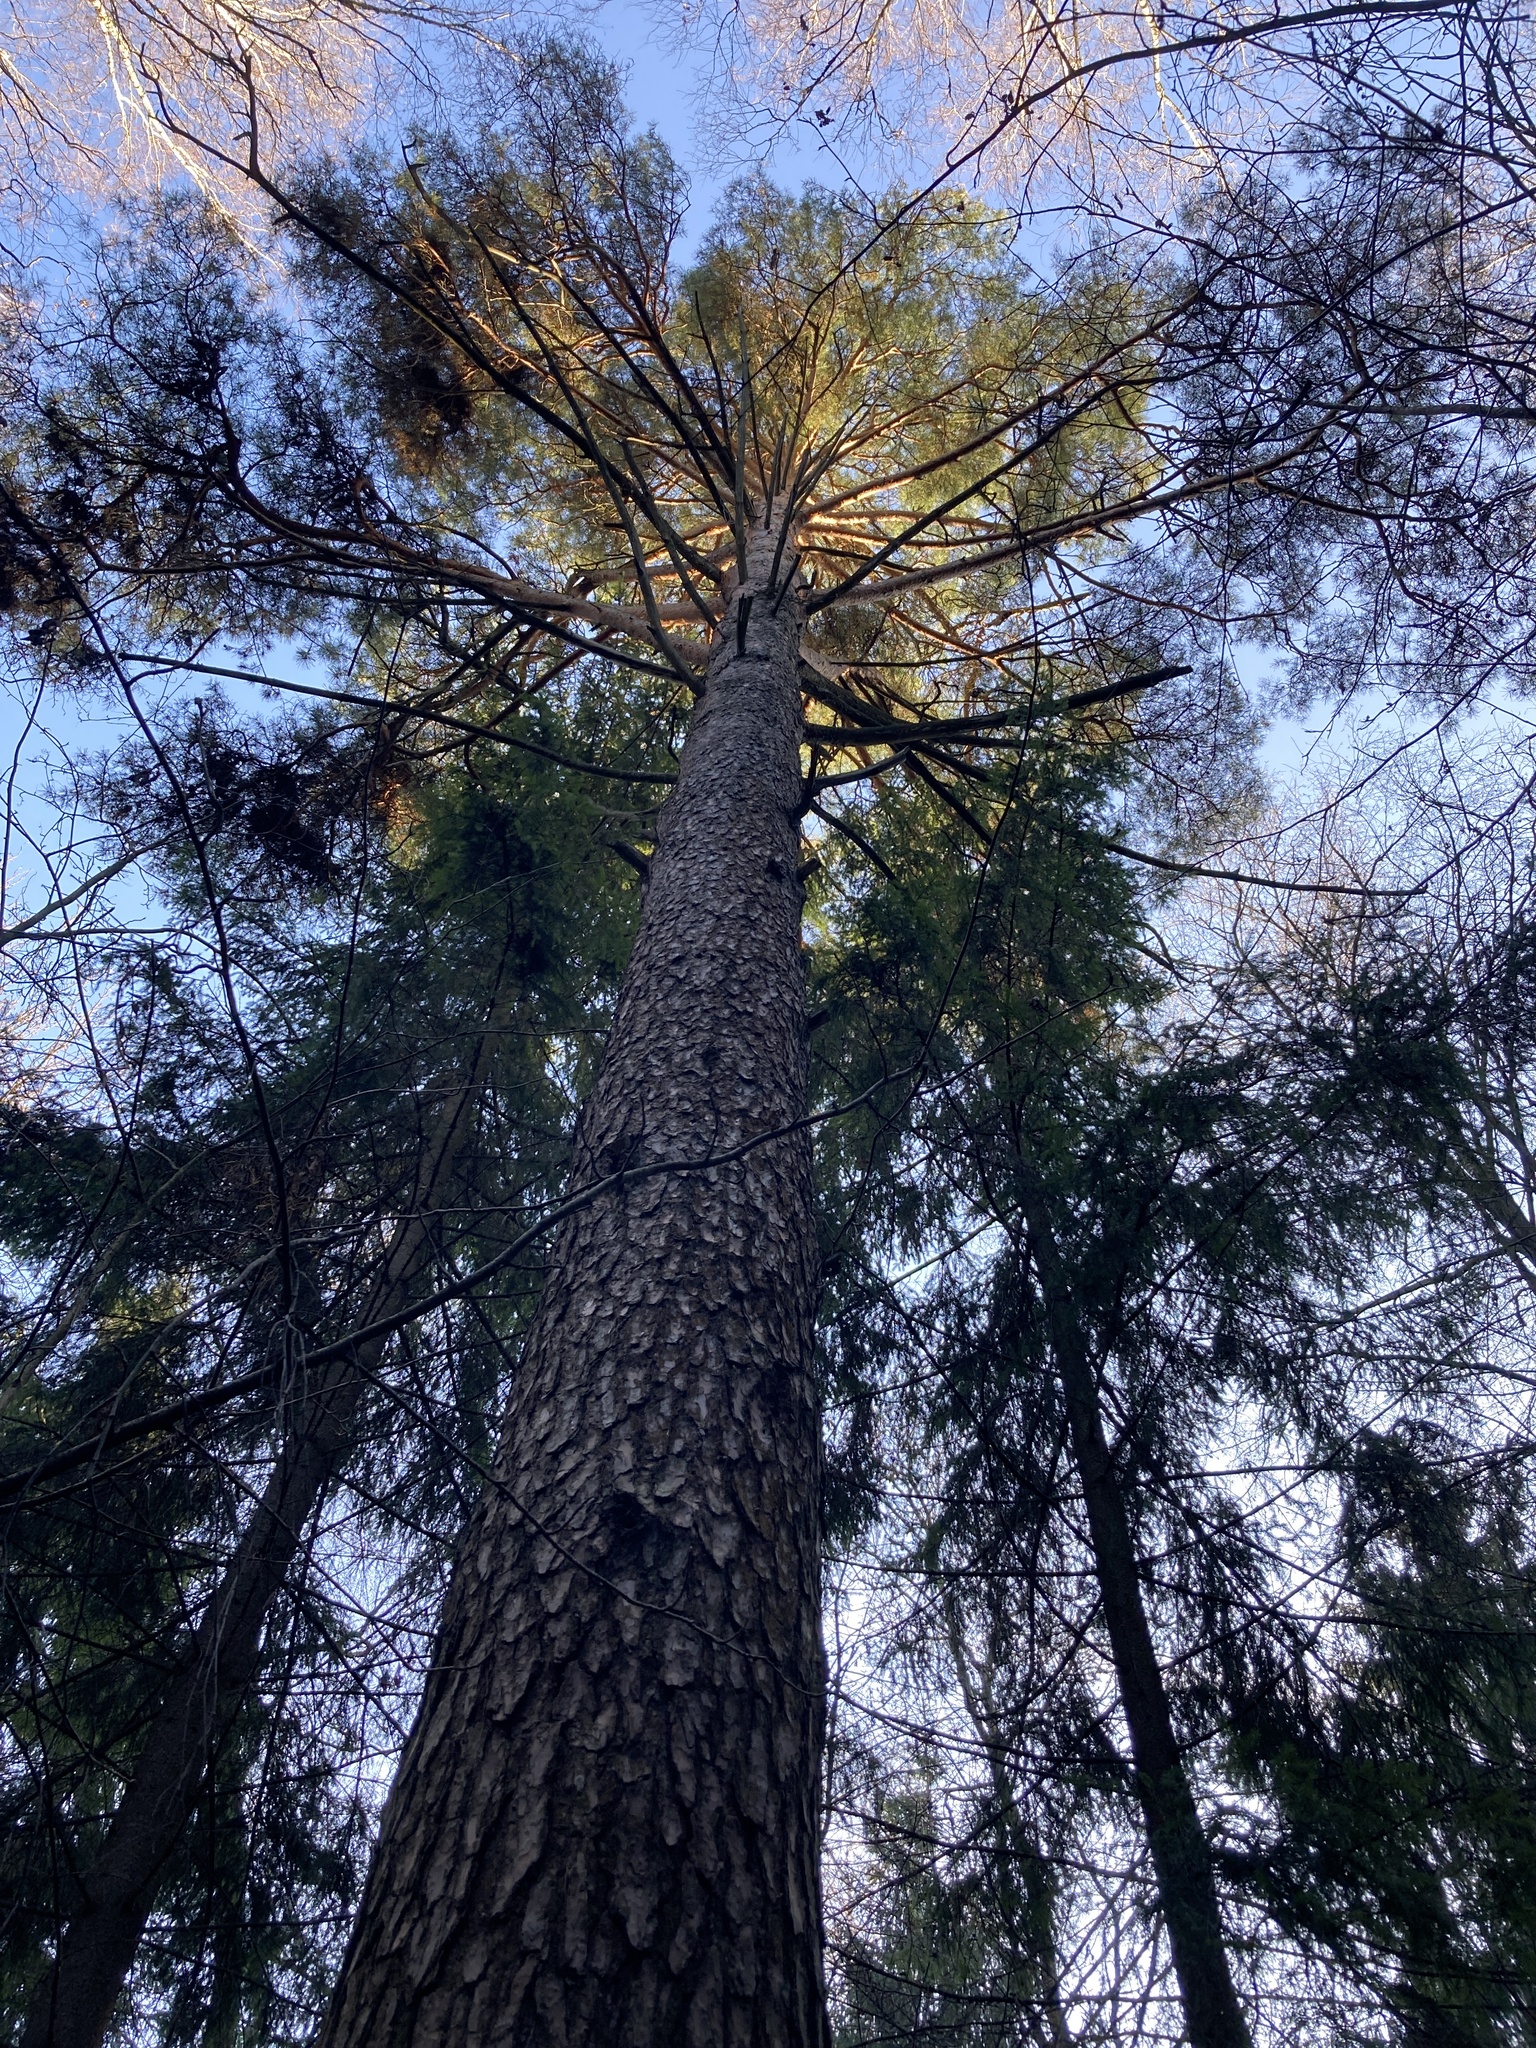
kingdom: Plantae
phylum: Tracheophyta
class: Pinopsida
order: Pinales
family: Pinaceae
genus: Pinus
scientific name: Pinus sylvestris
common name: Scots pine
